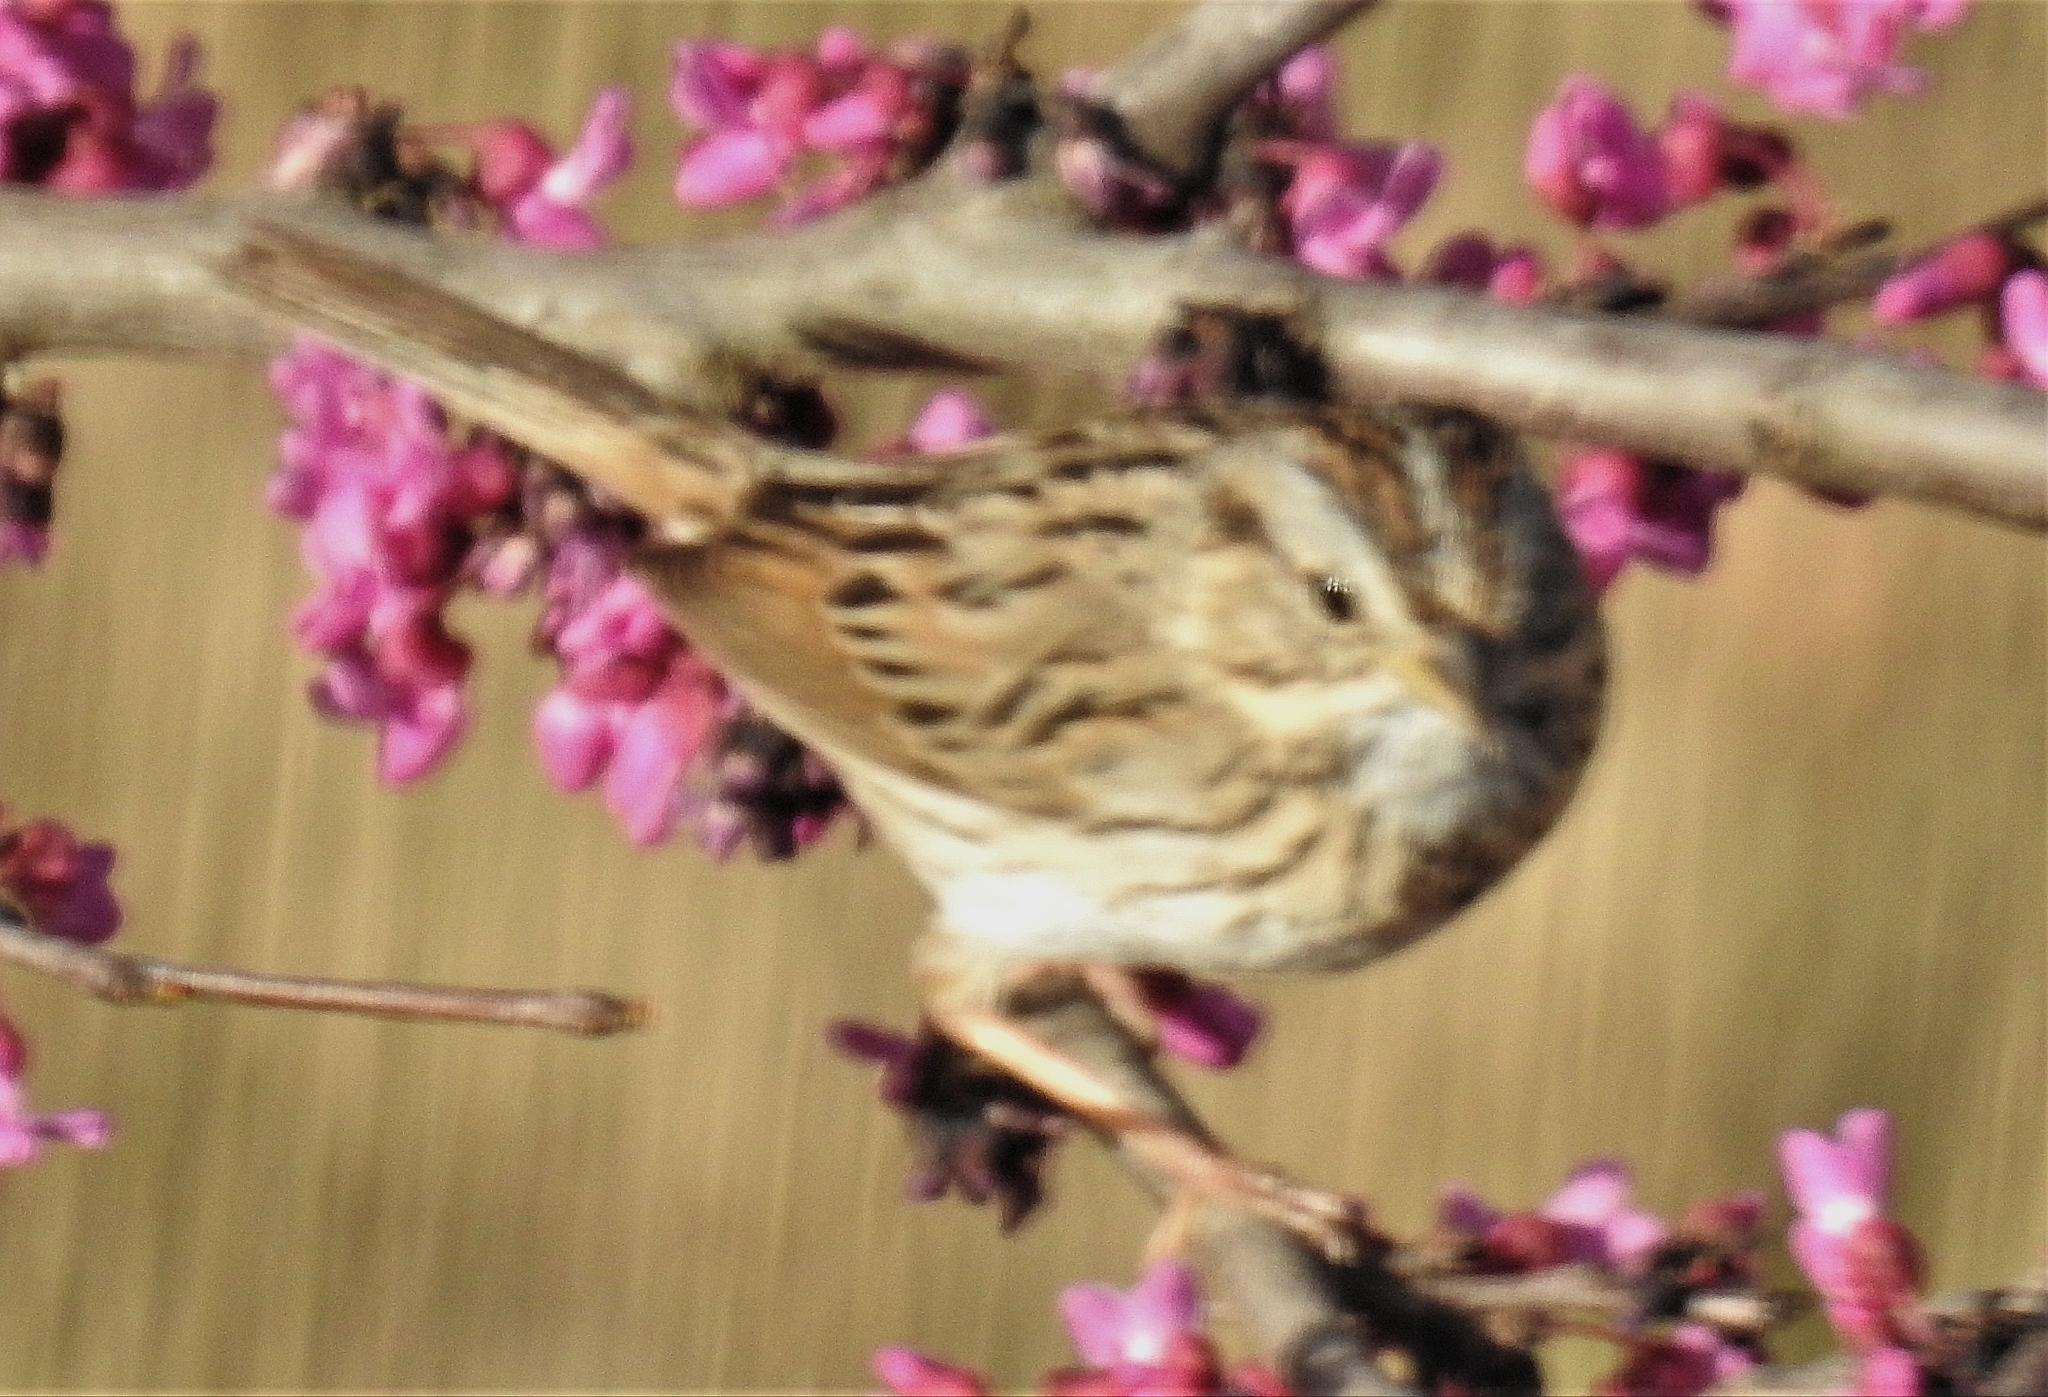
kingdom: Animalia
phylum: Chordata
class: Aves
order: Passeriformes
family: Passerellidae
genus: Melospiza
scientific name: Melospiza lincolnii
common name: Lincoln's sparrow
